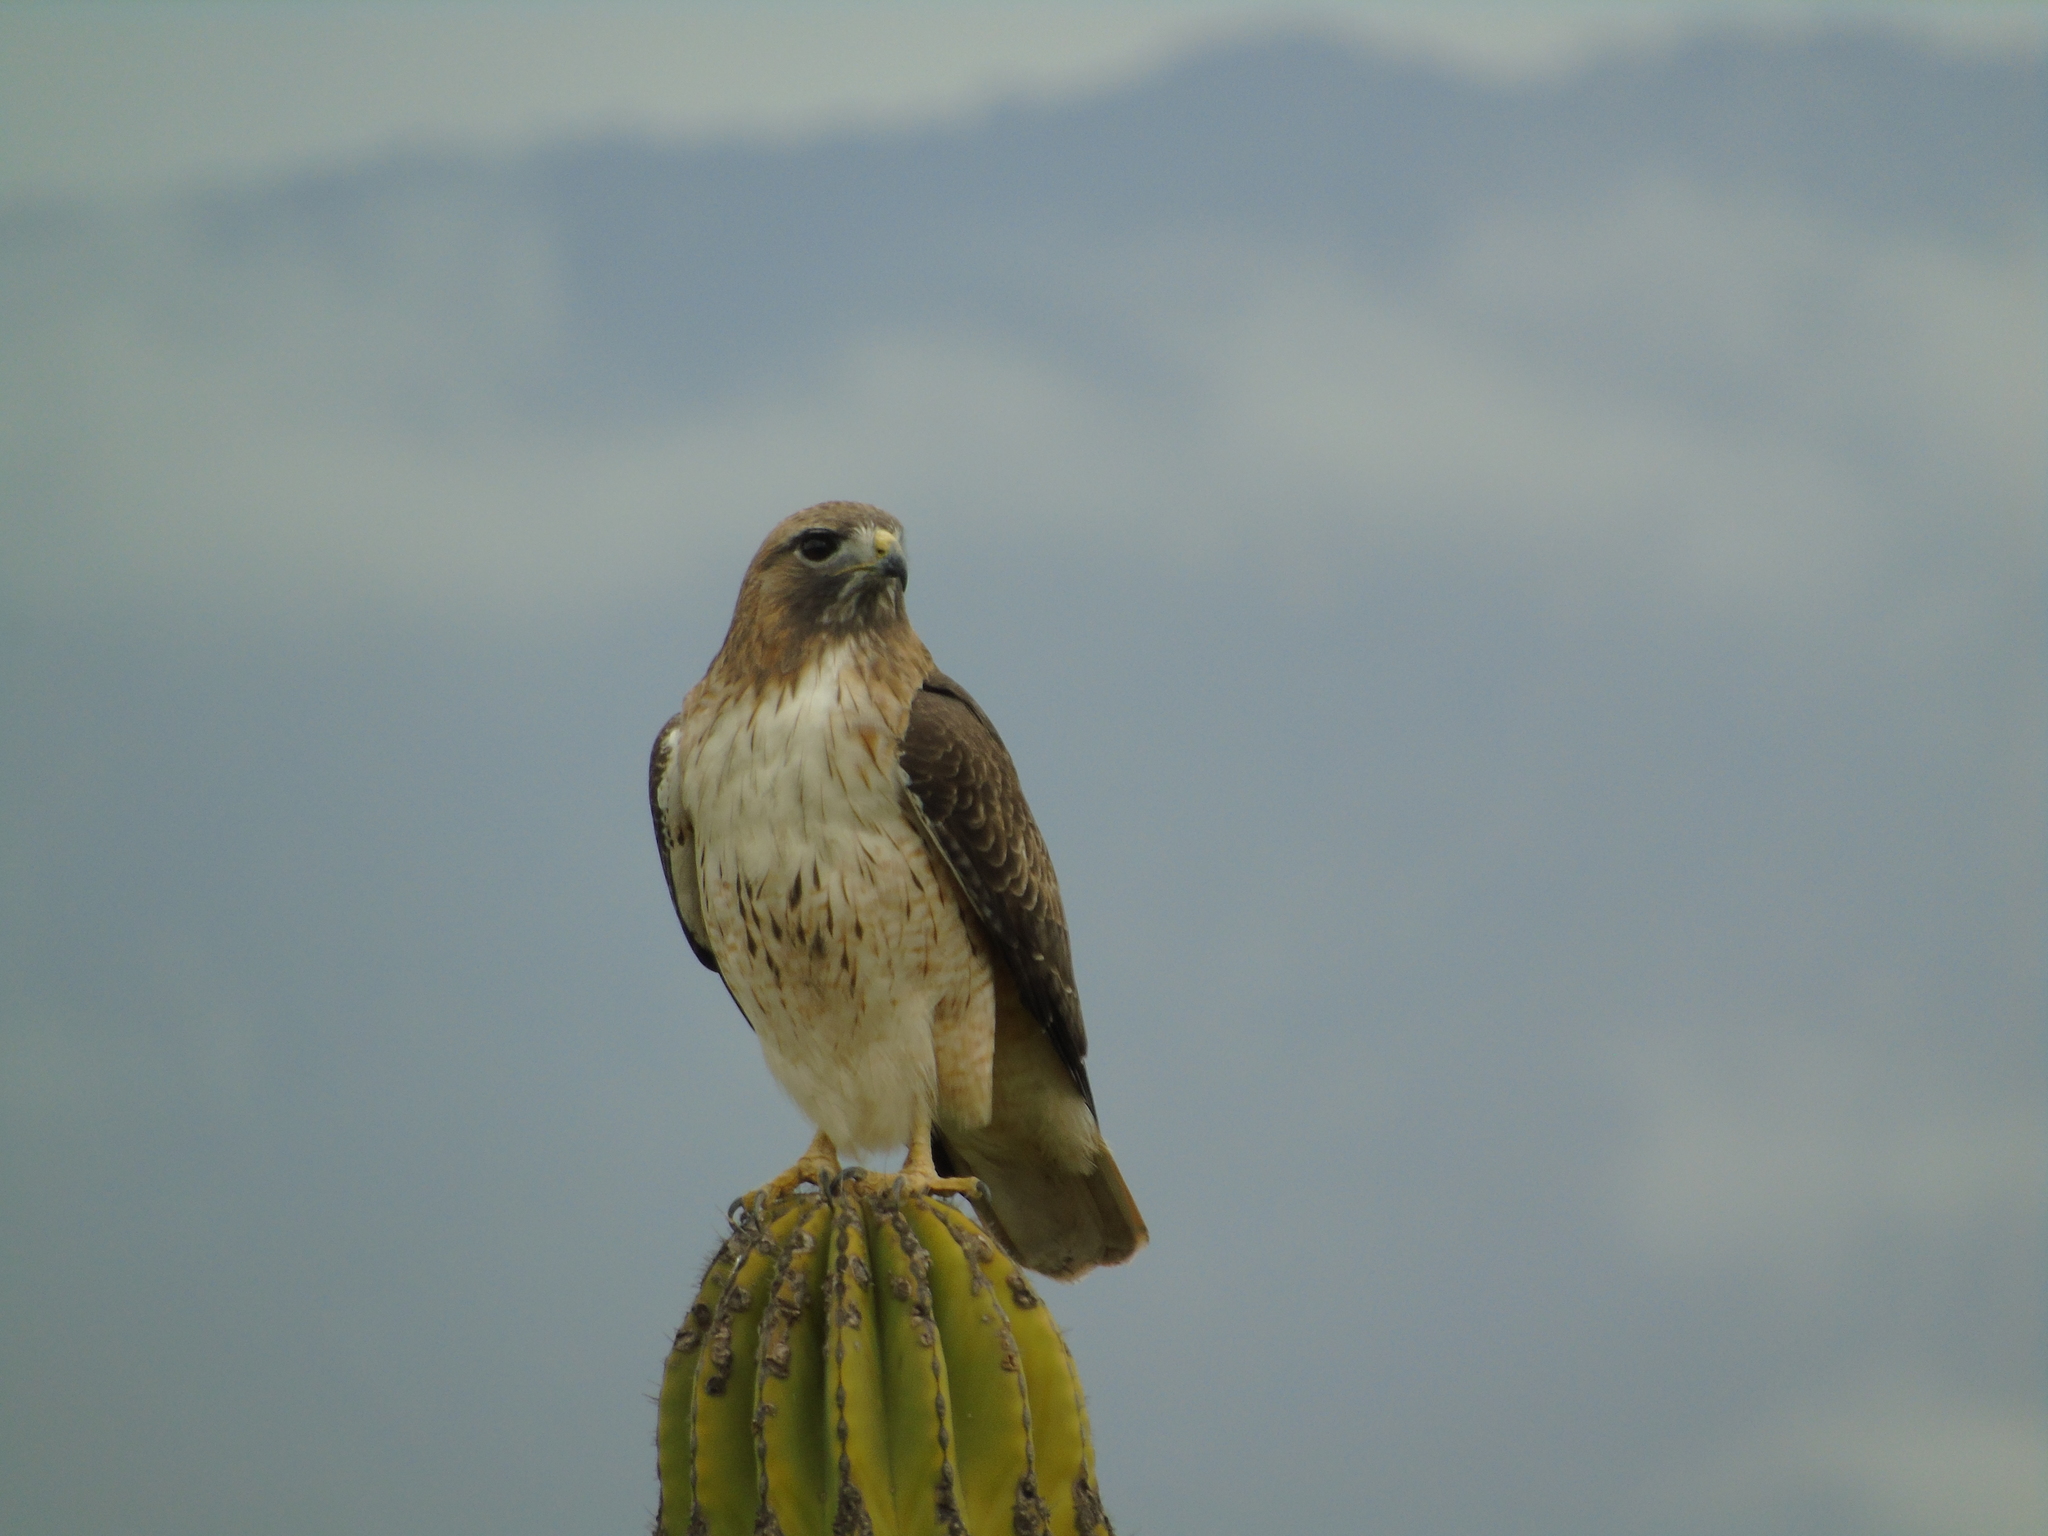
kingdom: Animalia
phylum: Chordata
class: Aves
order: Accipitriformes
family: Accipitridae
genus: Buteo
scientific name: Buteo jamaicensis
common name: Red-tailed hawk
